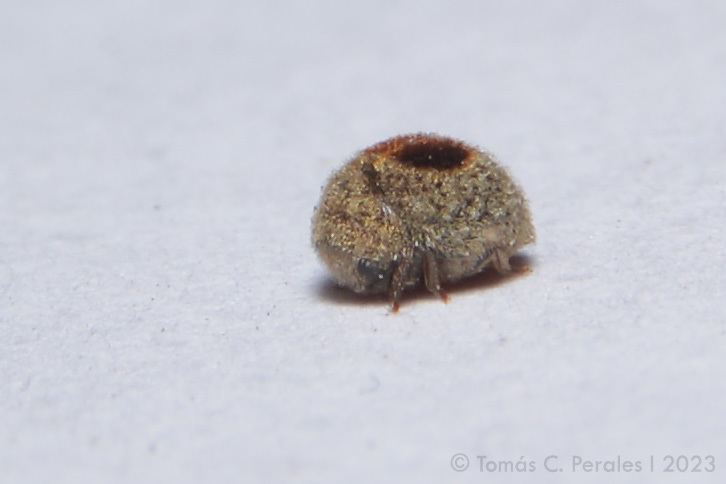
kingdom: Animalia
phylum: Arthropoda
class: Insecta
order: Coleoptera
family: Anobiidae
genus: Byrrhodes
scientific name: Byrrhodes
